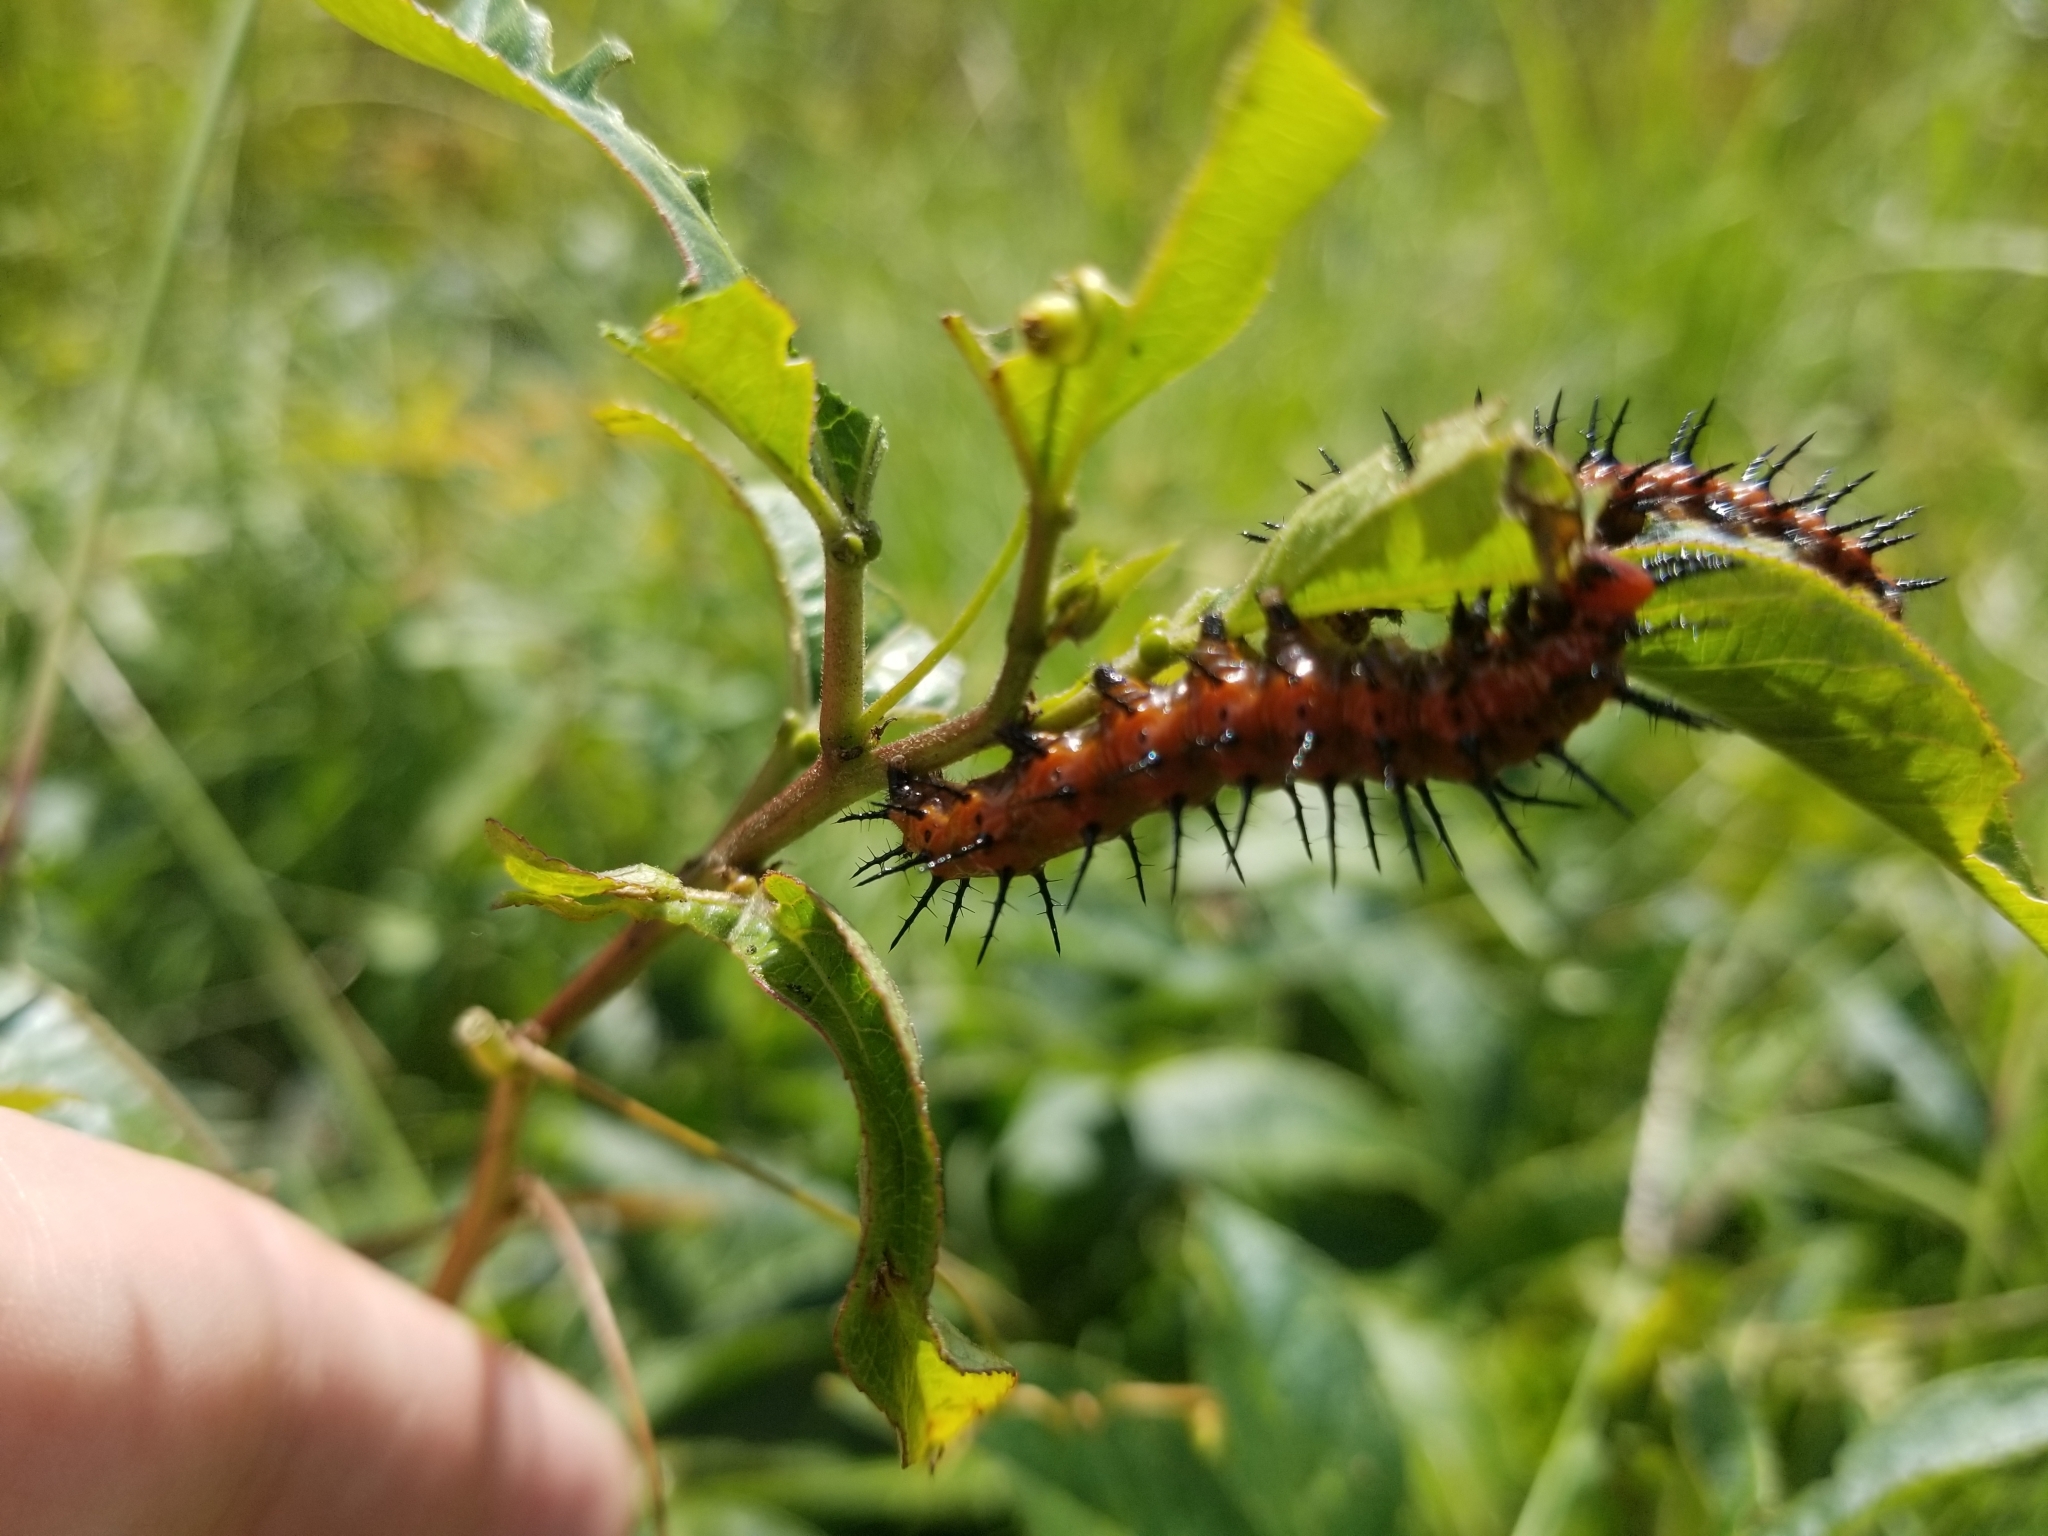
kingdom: Animalia
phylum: Arthropoda
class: Insecta
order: Lepidoptera
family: Nymphalidae
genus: Dione
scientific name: Dione vanillae
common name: Gulf fritillary
